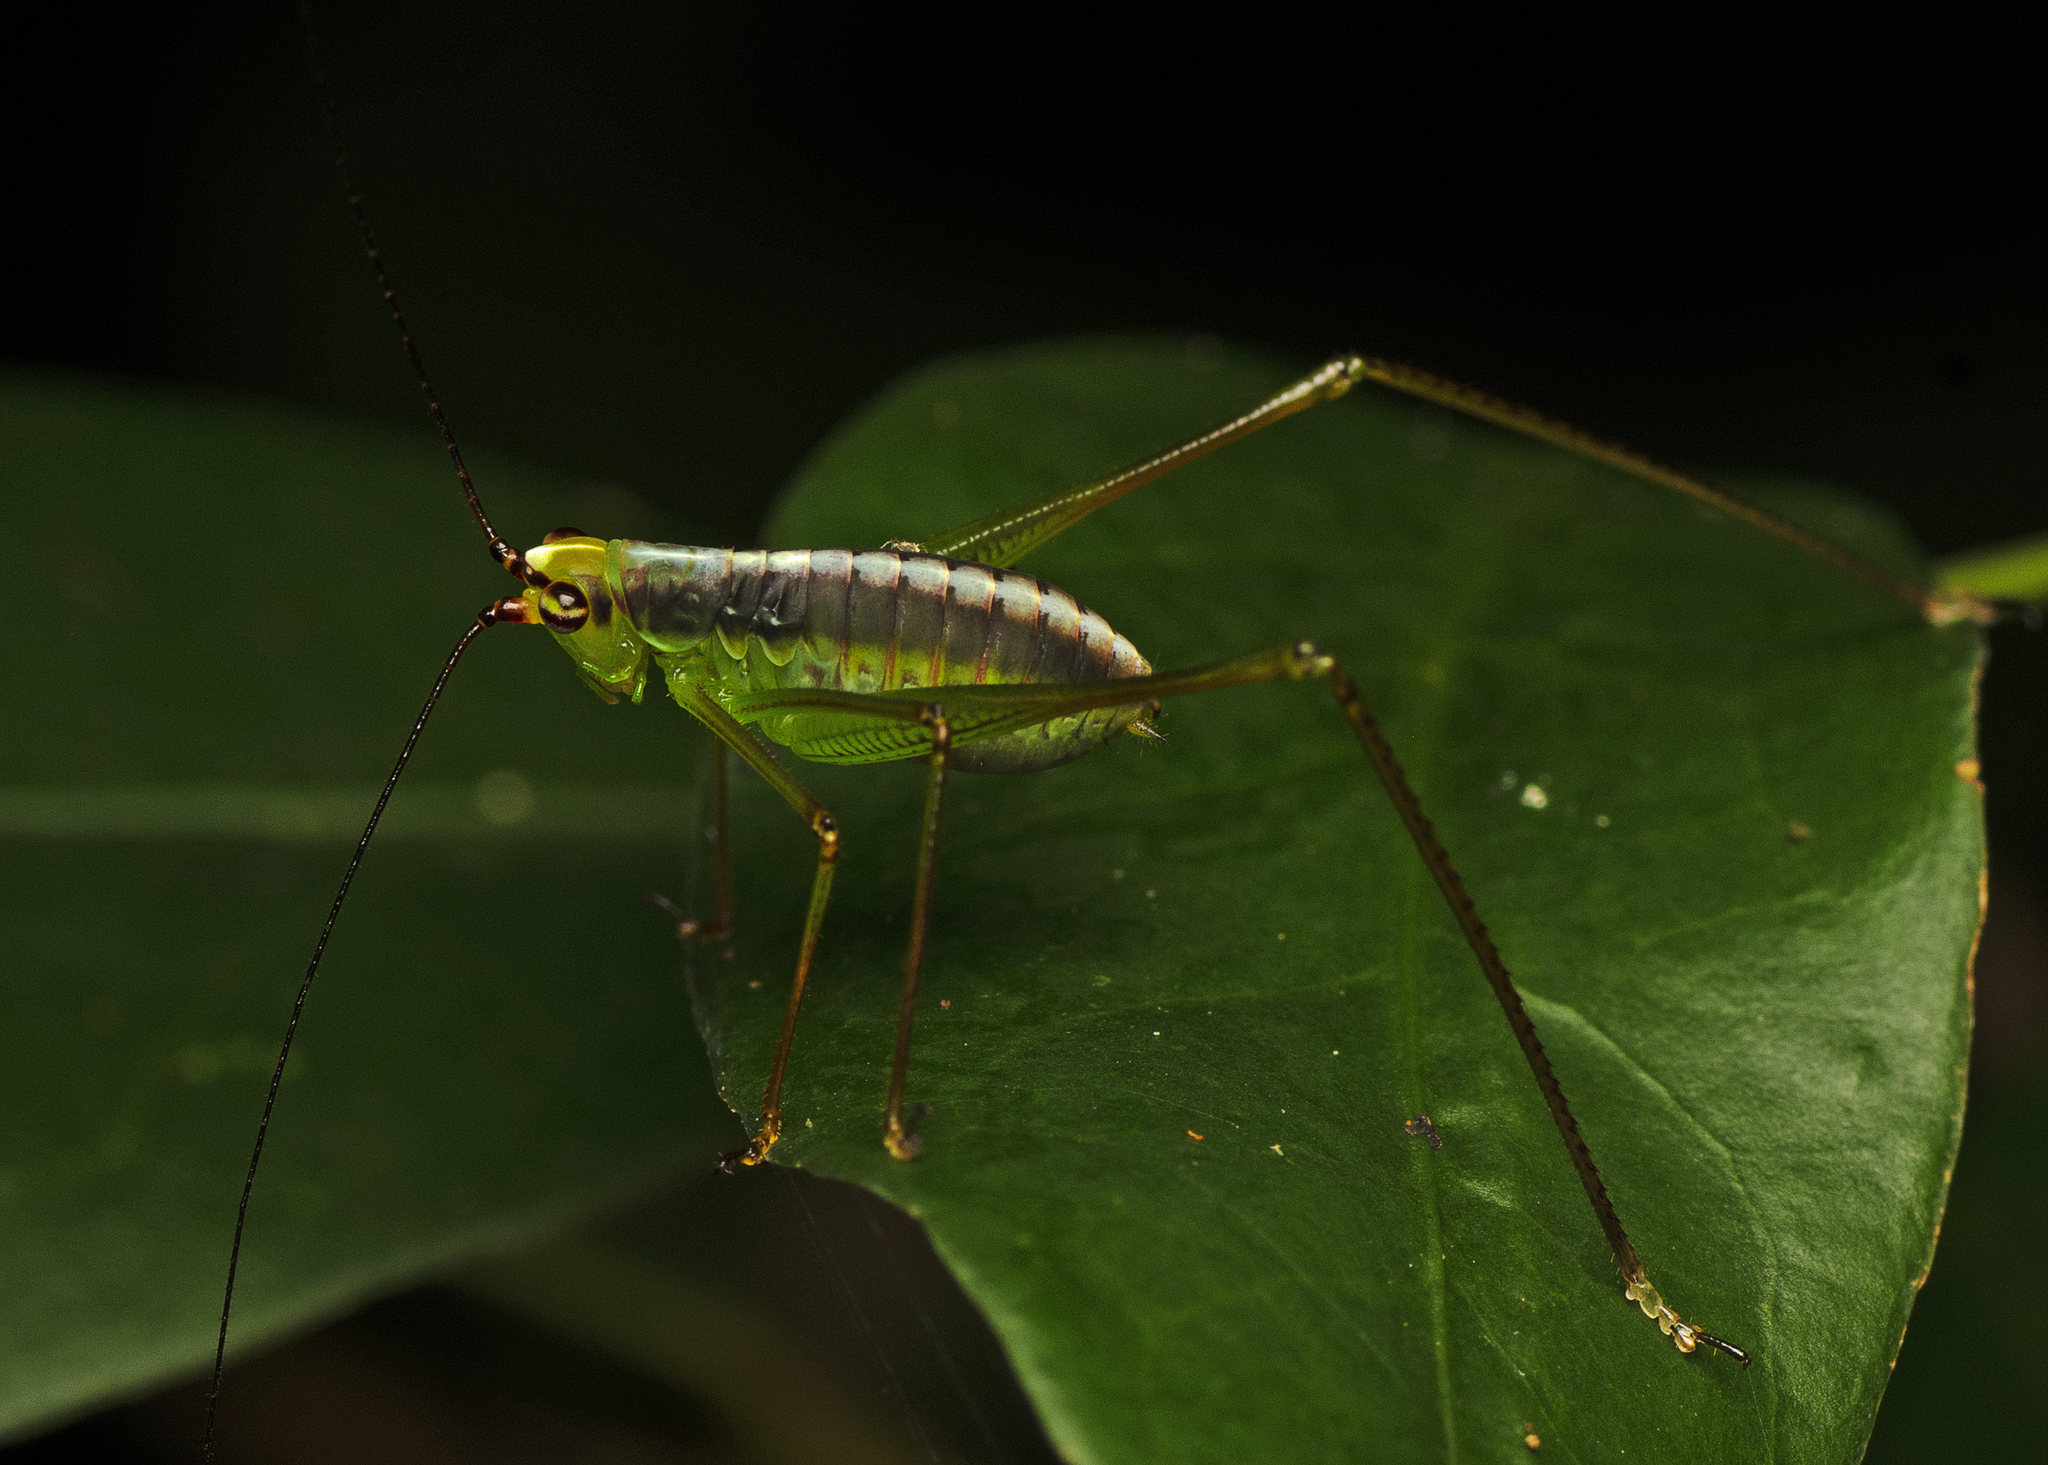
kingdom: Animalia
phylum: Arthropoda
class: Insecta
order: Orthoptera
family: Tettigoniidae
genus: Leucopodoptera
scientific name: Leucopodoptera eumundii
